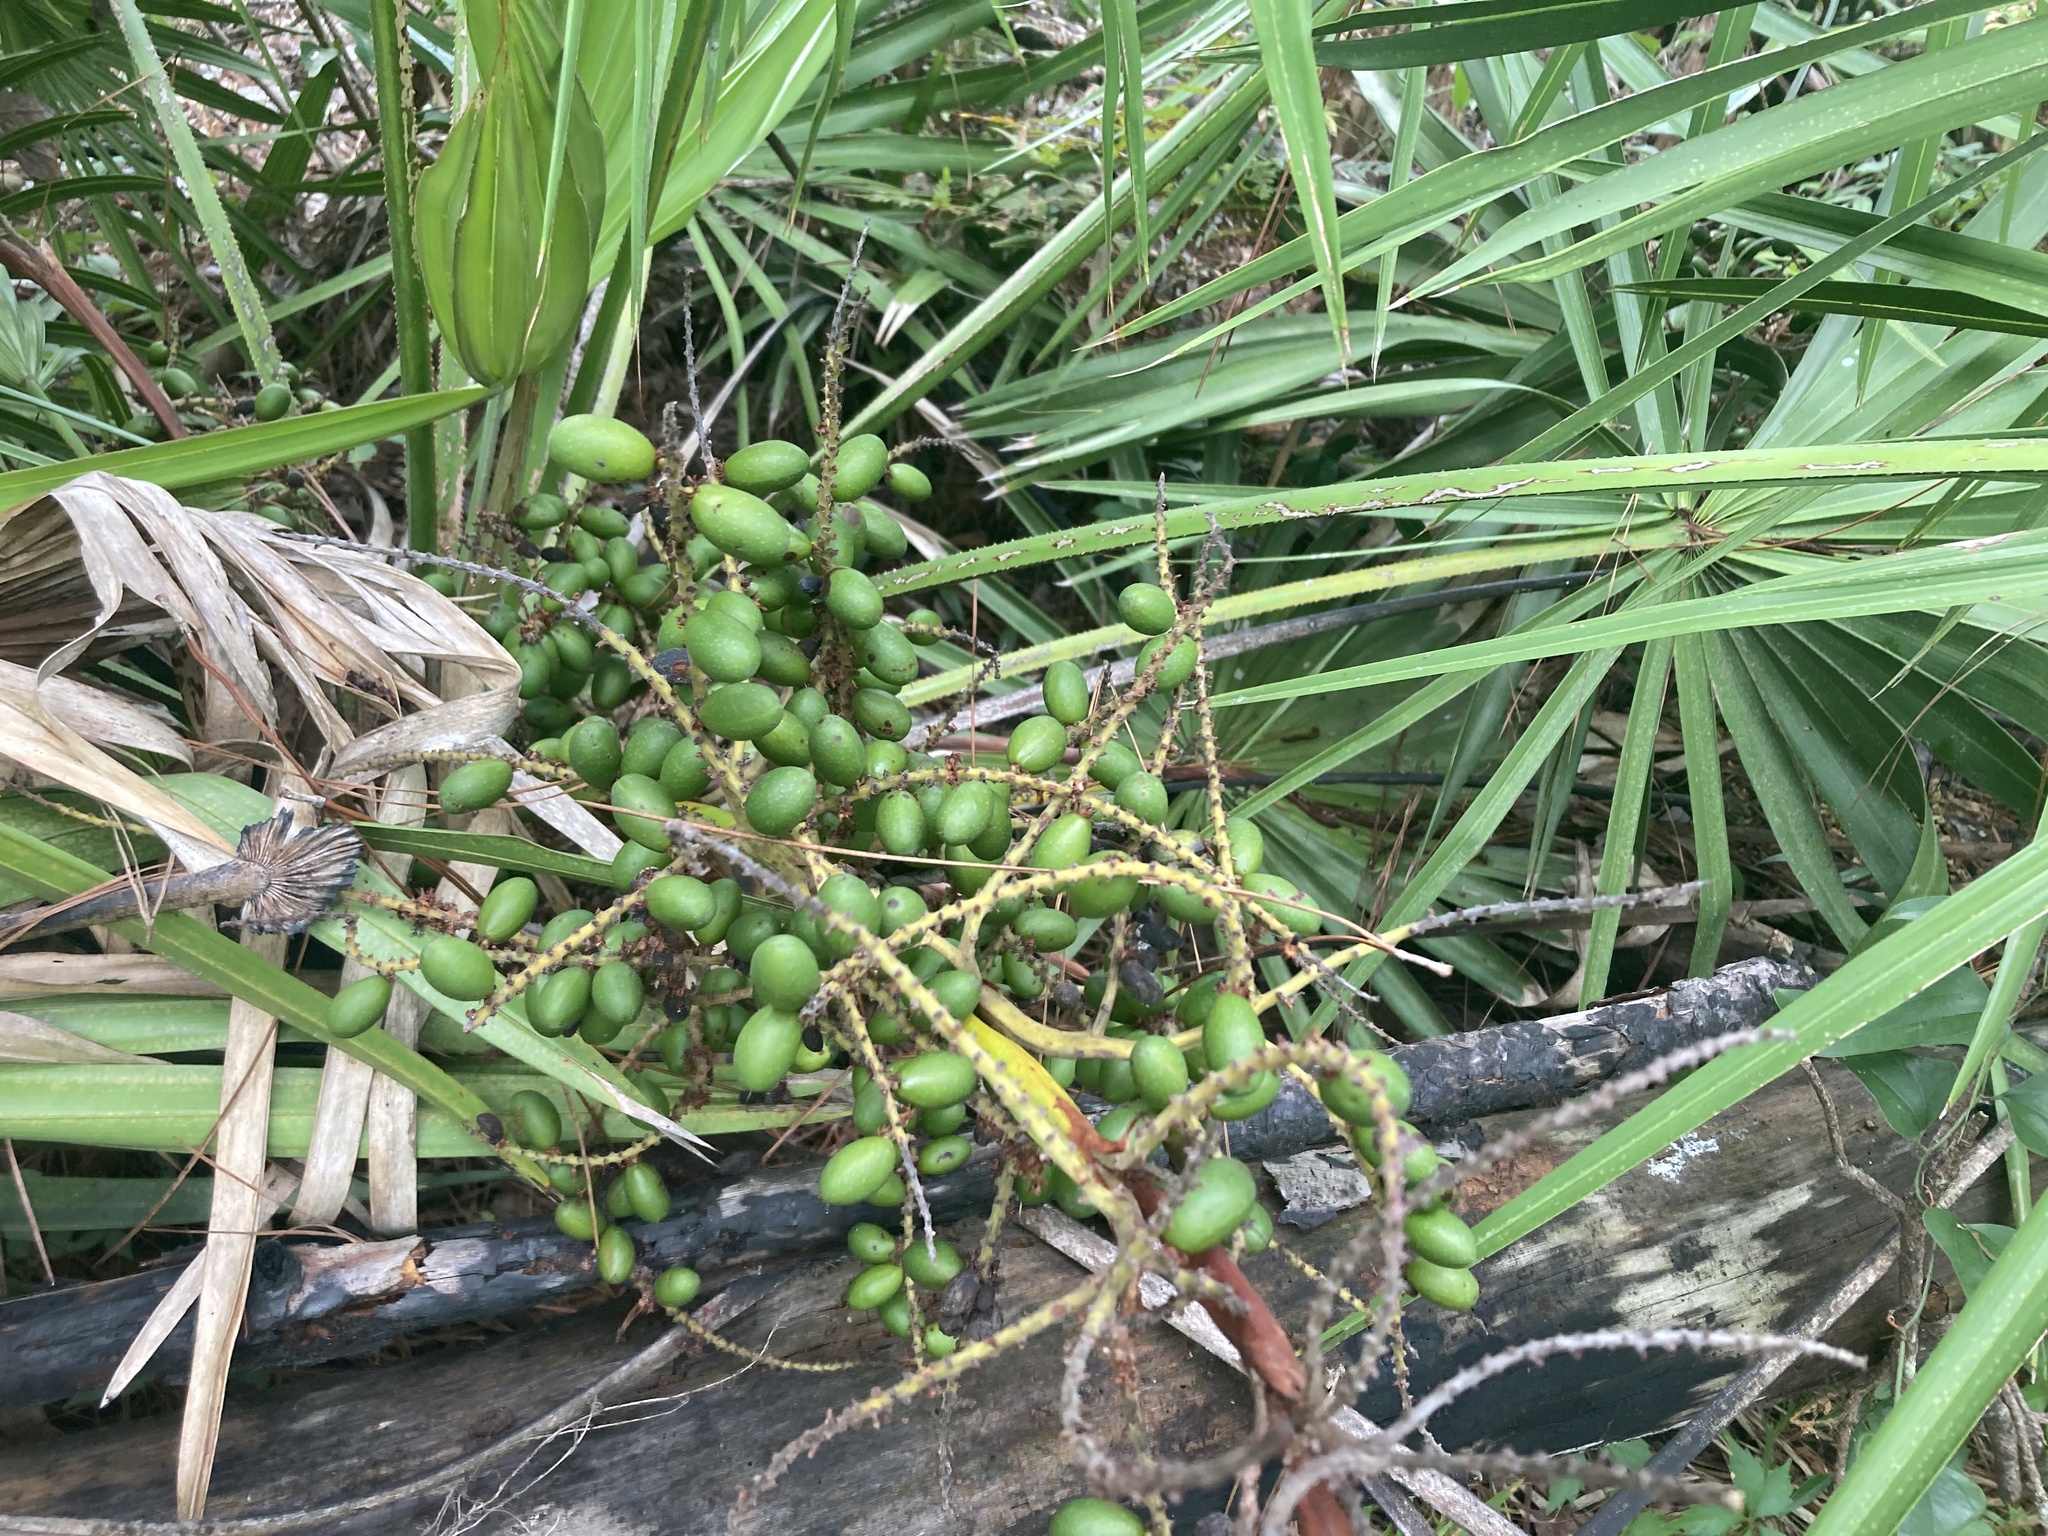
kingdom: Plantae
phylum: Tracheophyta
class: Liliopsida
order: Arecales
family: Arecaceae
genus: Serenoa
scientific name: Serenoa repens
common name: Saw-palmetto
